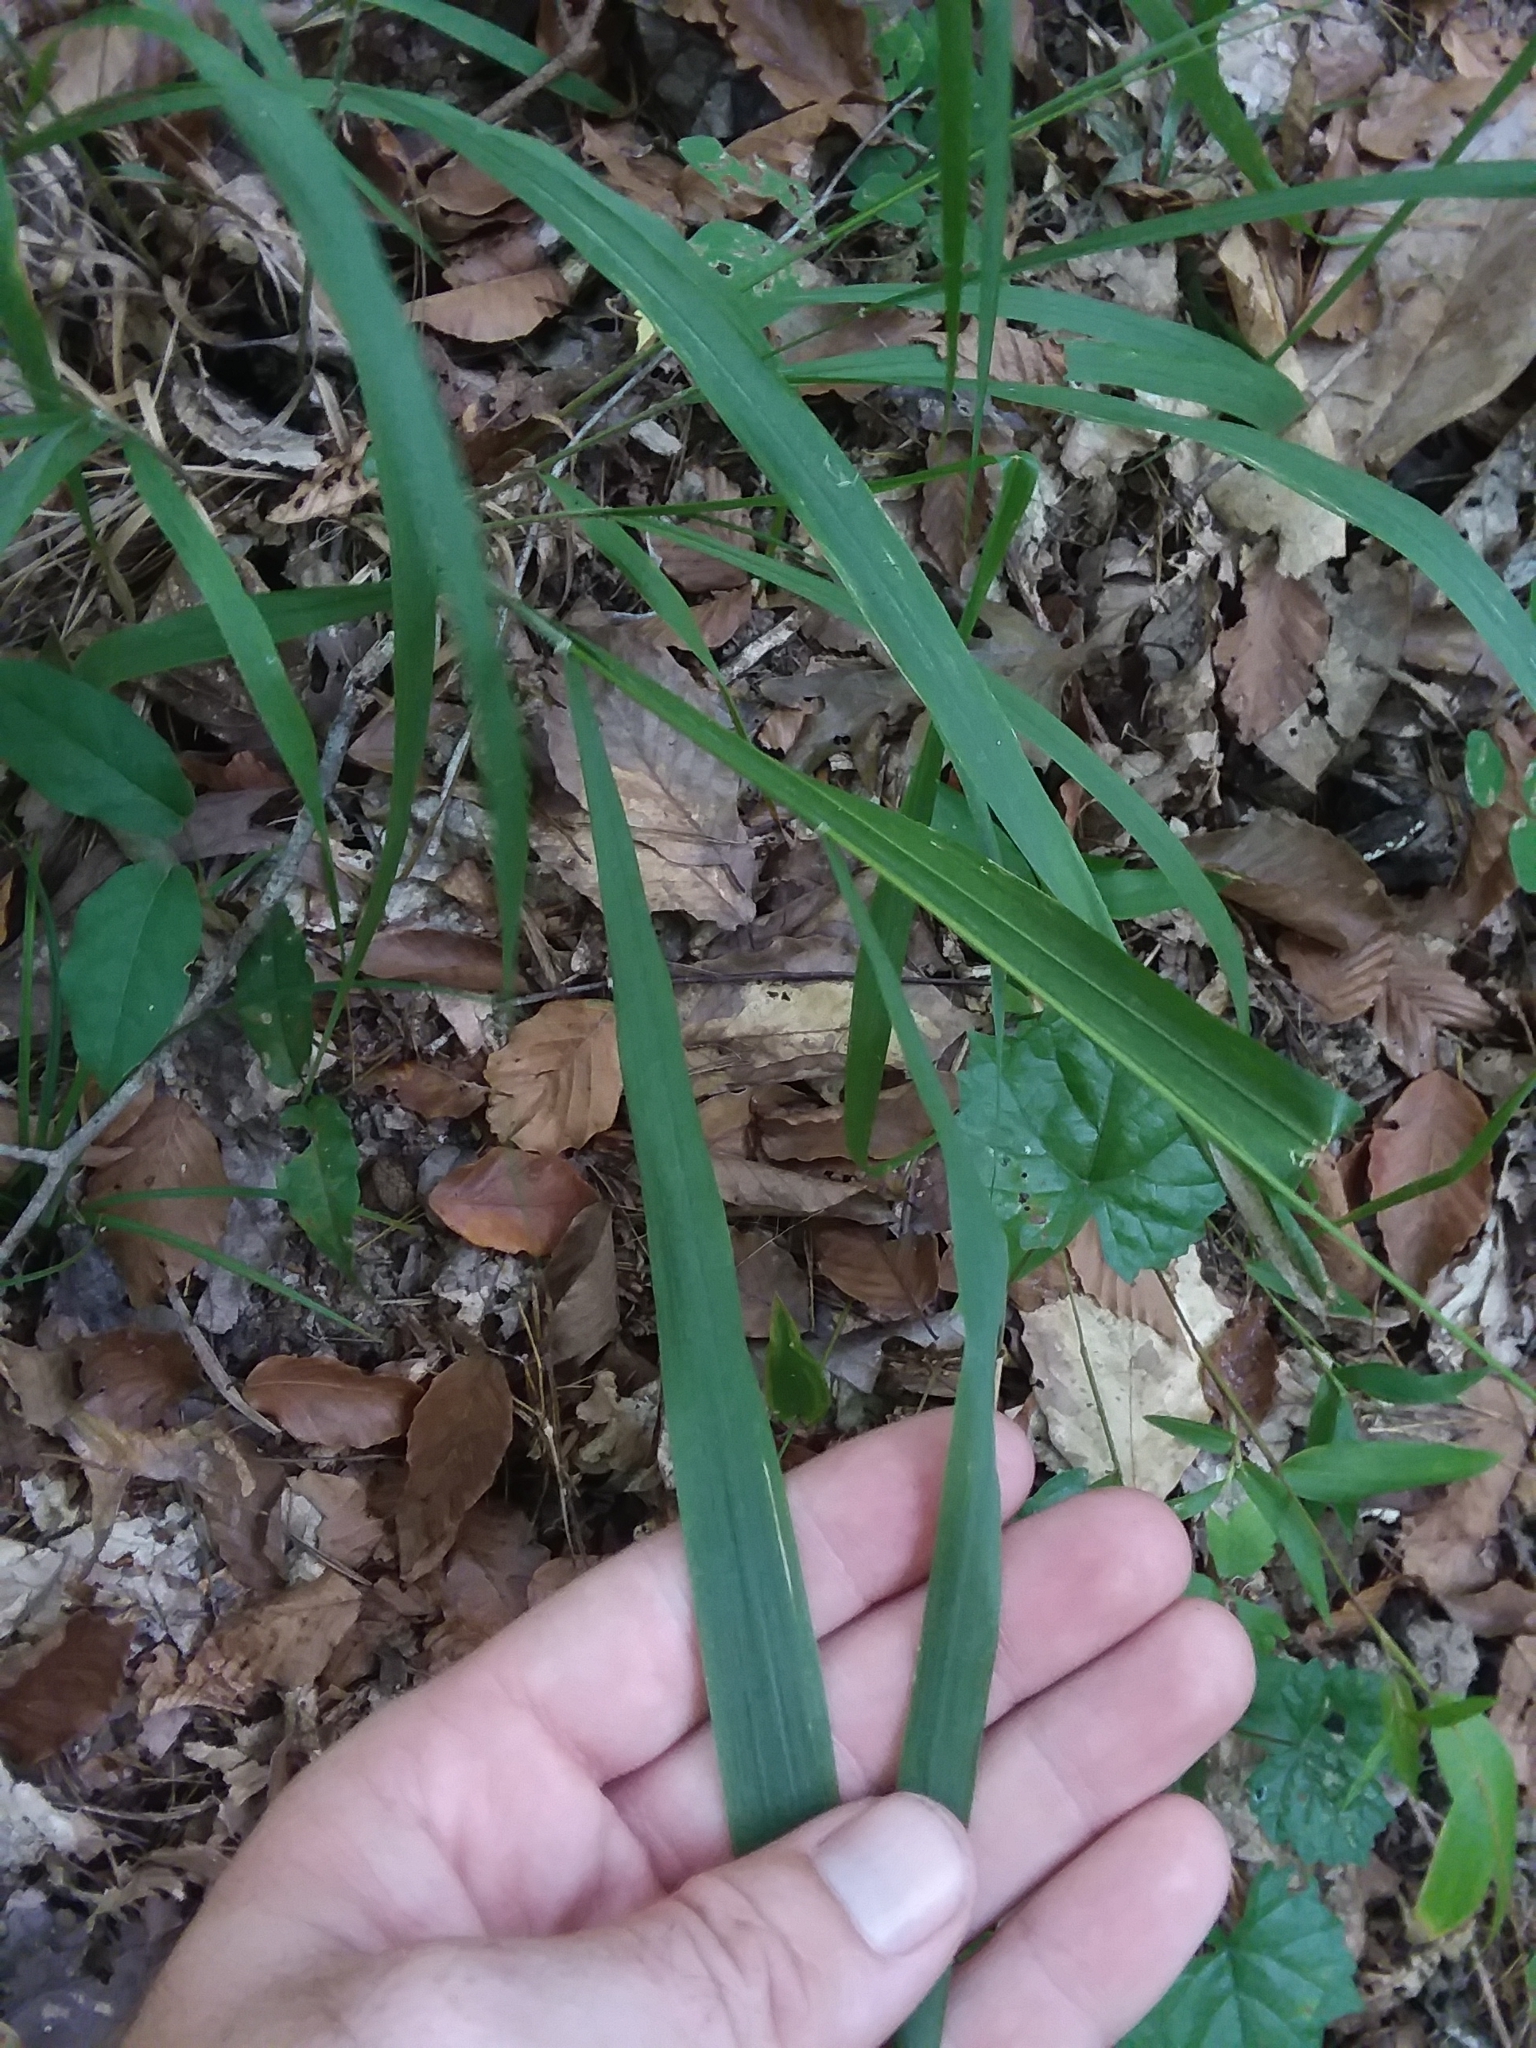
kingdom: Plantae
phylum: Tracheophyta
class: Liliopsida
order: Poales
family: Poaceae
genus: Chasmanthium
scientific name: Chasmanthium laxum
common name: Slender chasmanthium
